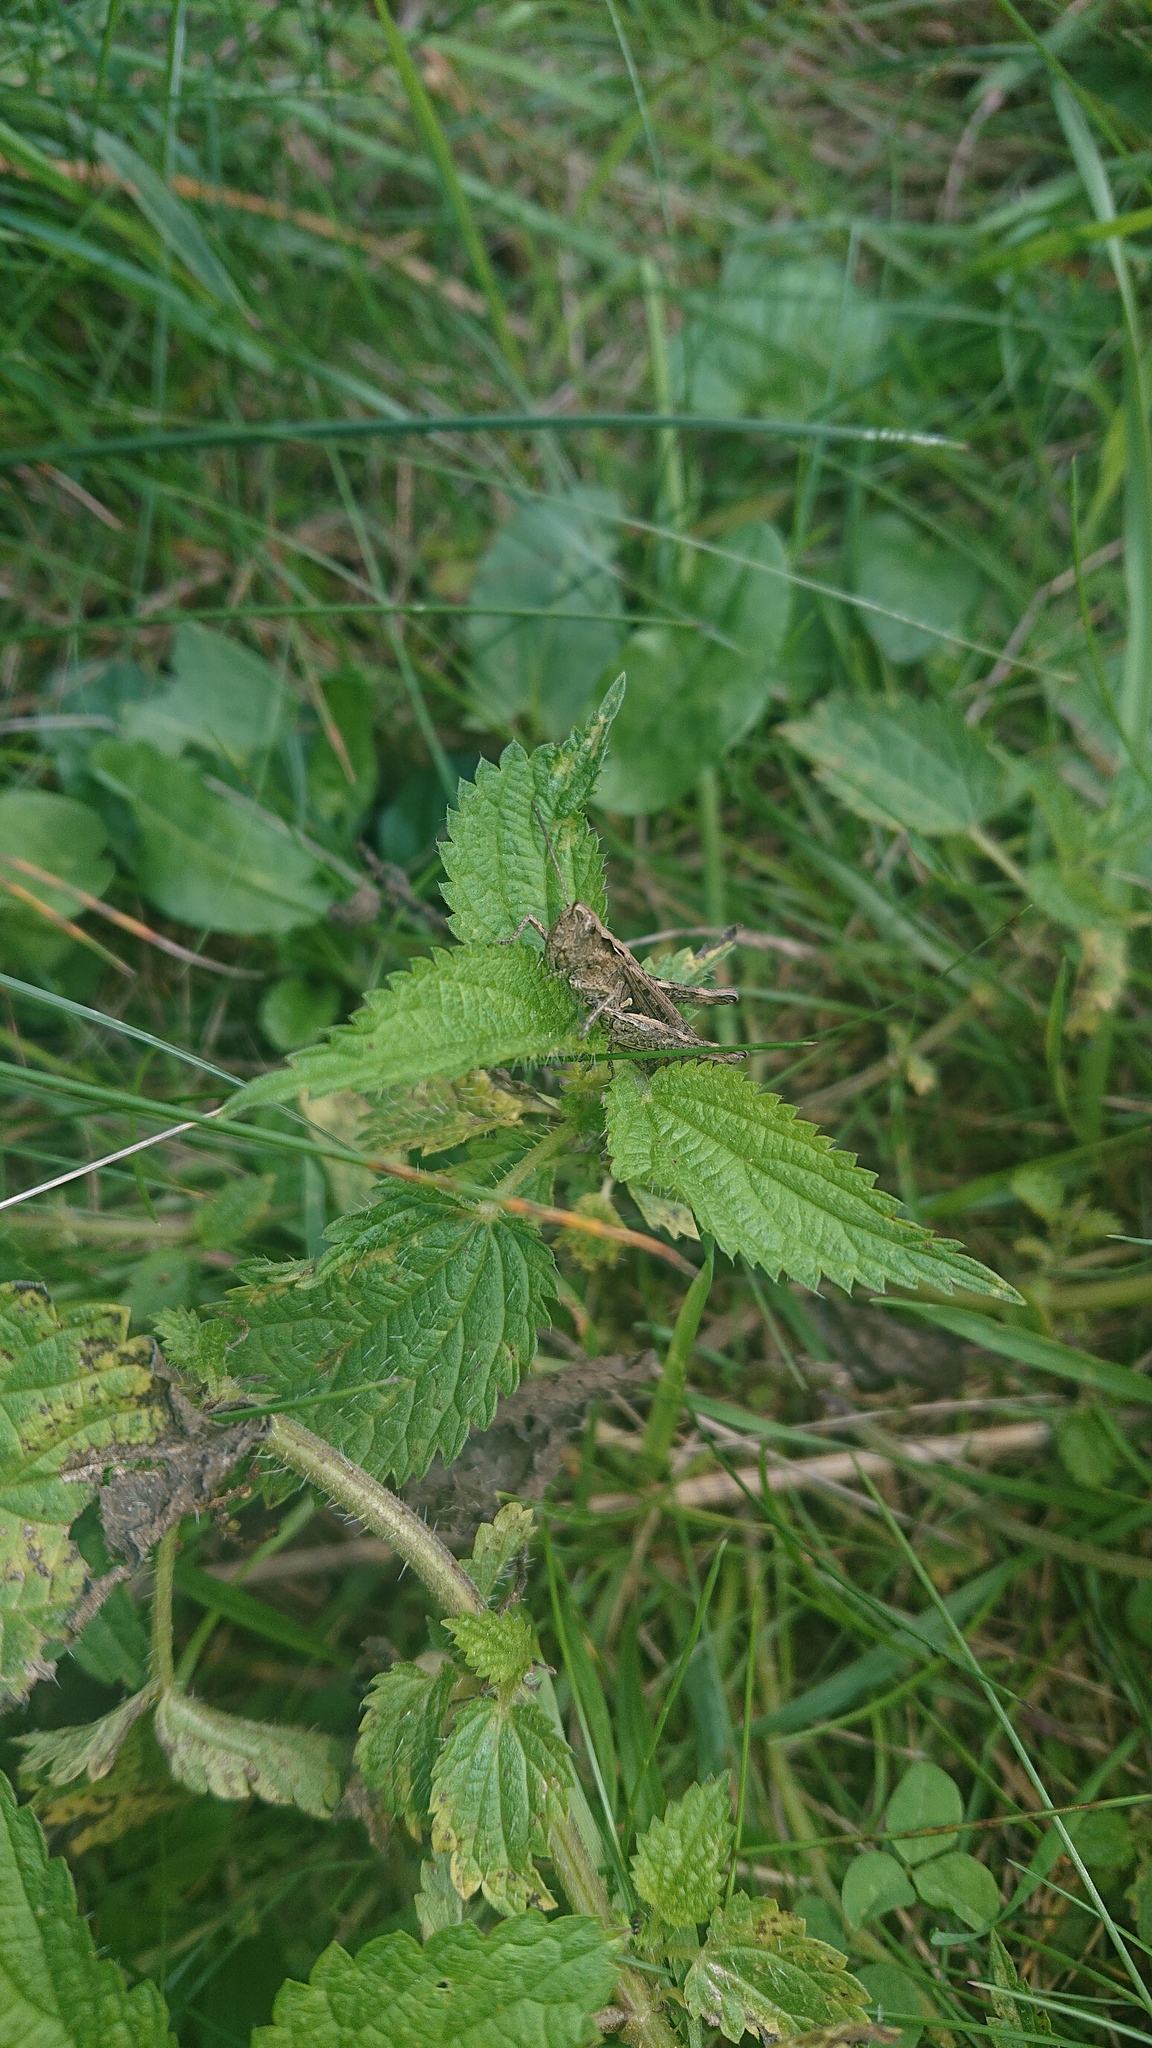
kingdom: Plantae
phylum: Tracheophyta
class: Magnoliopsida
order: Rosales
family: Urticaceae
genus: Urtica
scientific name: Urtica dioica
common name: Common nettle
